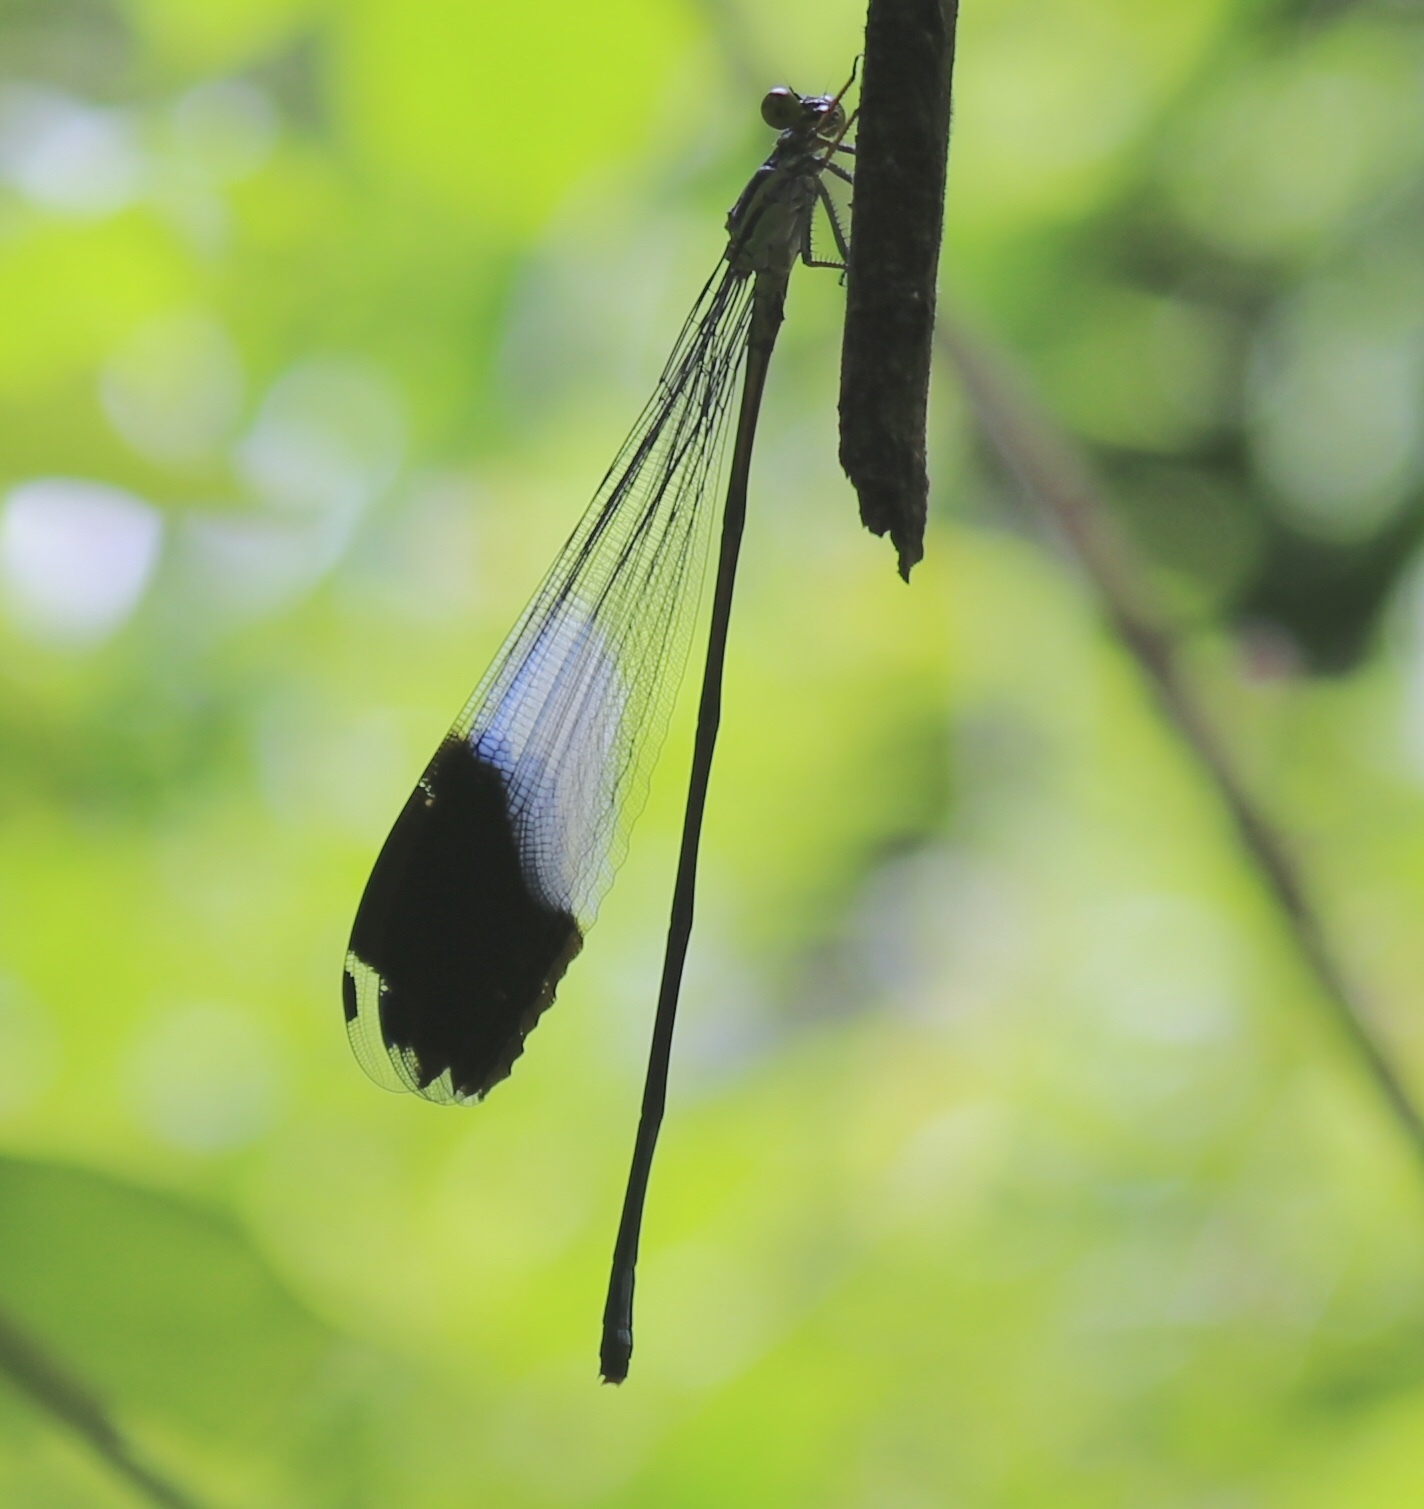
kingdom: Animalia
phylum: Arthropoda
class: Insecta
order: Odonata
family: Coenagrionidae
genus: Megaloprepus
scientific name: Megaloprepus caerulatus
